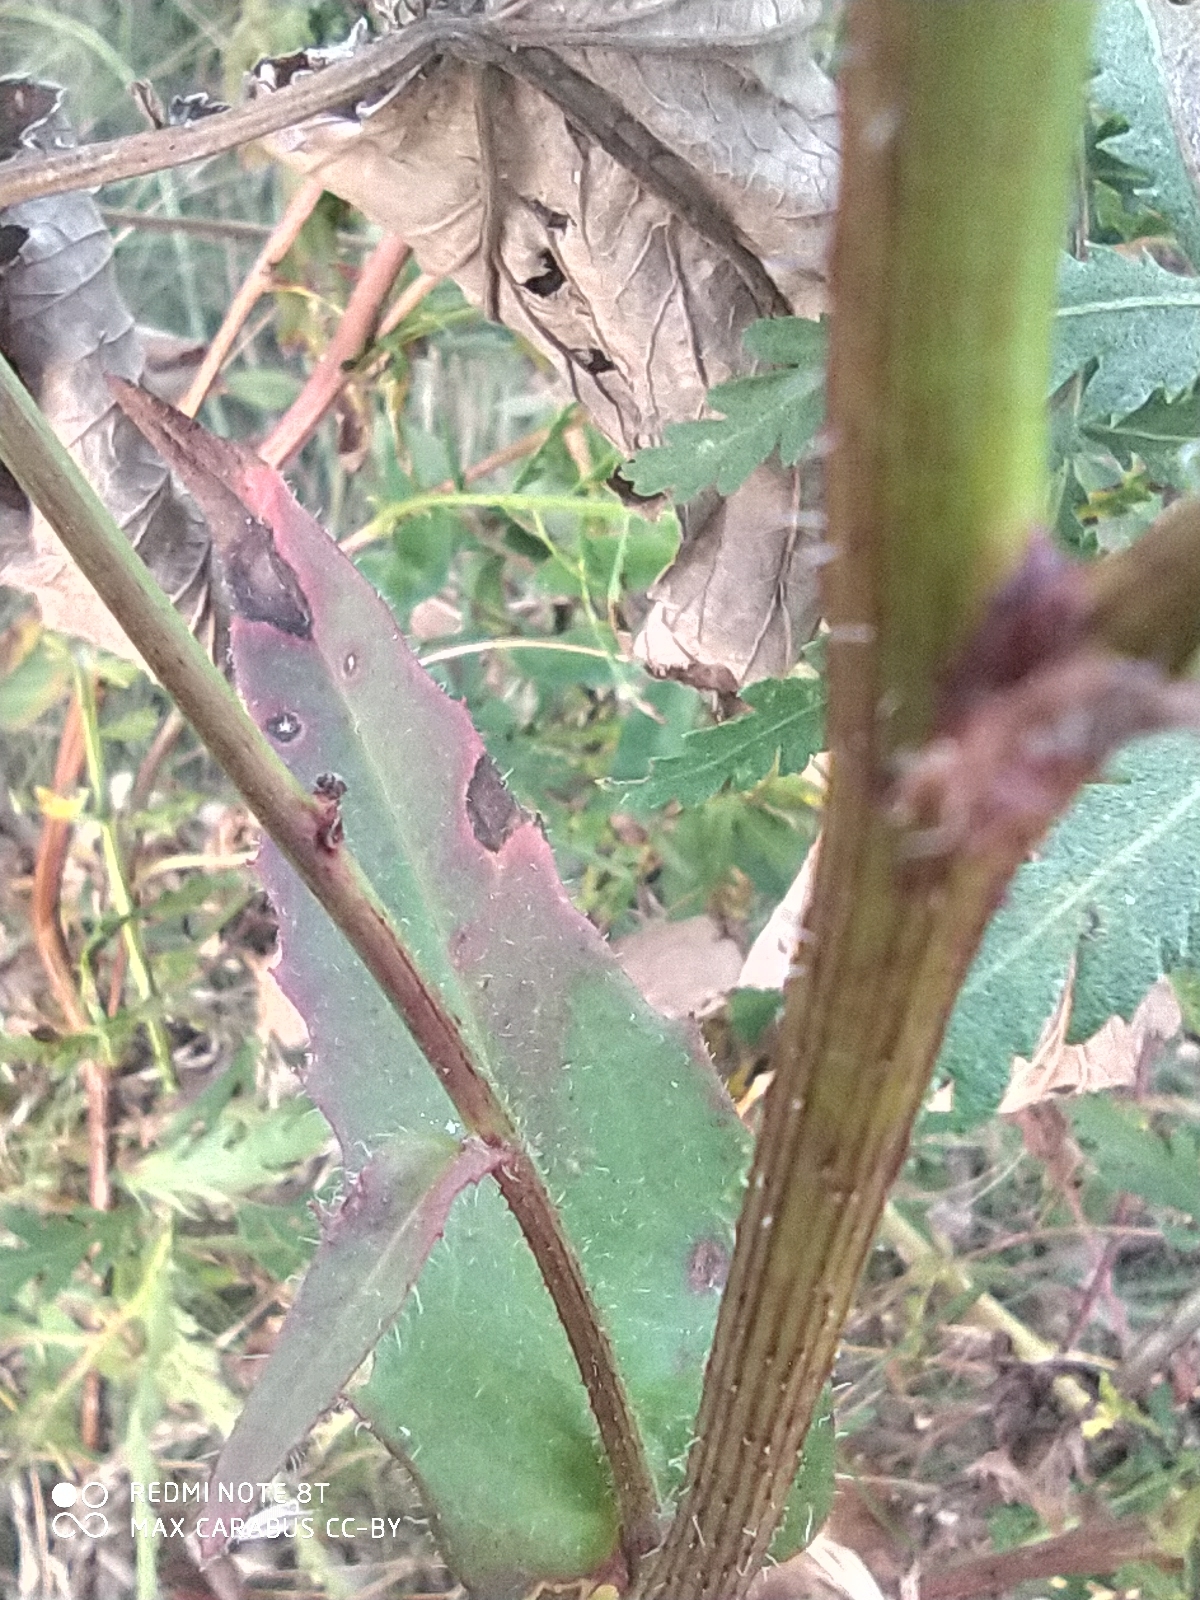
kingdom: Plantae
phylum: Tracheophyta
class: Magnoliopsida
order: Asterales
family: Asteraceae
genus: Picris
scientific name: Picris hieracioides
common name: Hawkweed oxtongue
